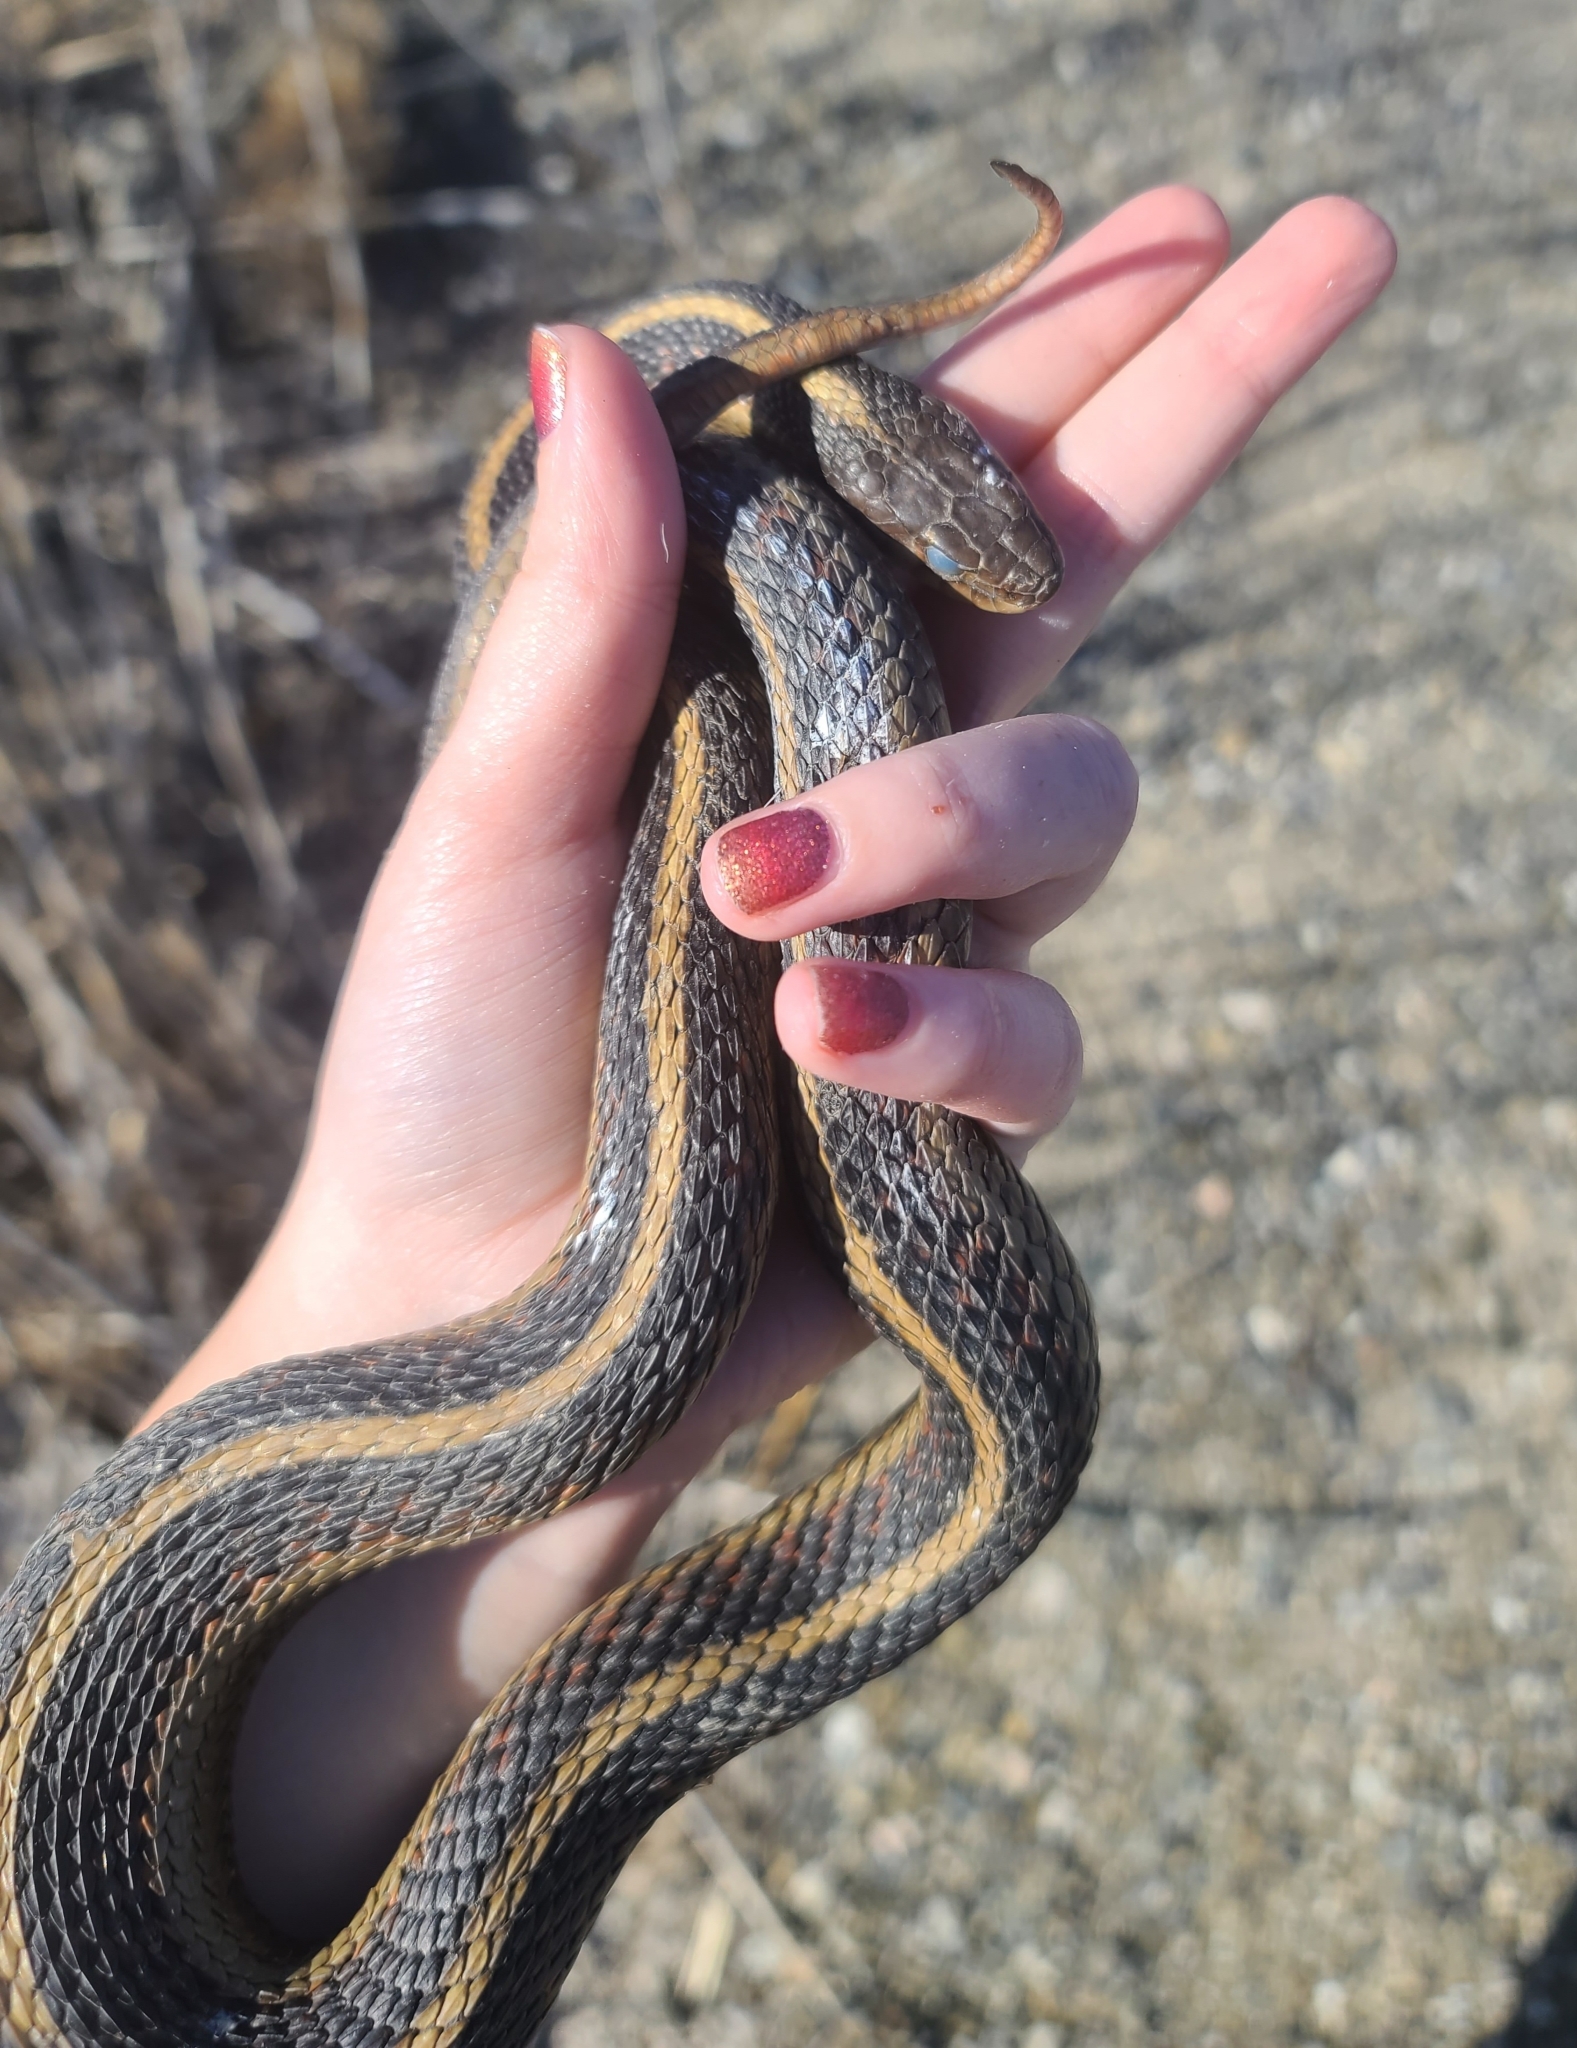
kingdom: Animalia
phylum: Chordata
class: Squamata
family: Colubridae
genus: Thamnophis
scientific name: Thamnophis sirtalis
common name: Common garter snake
